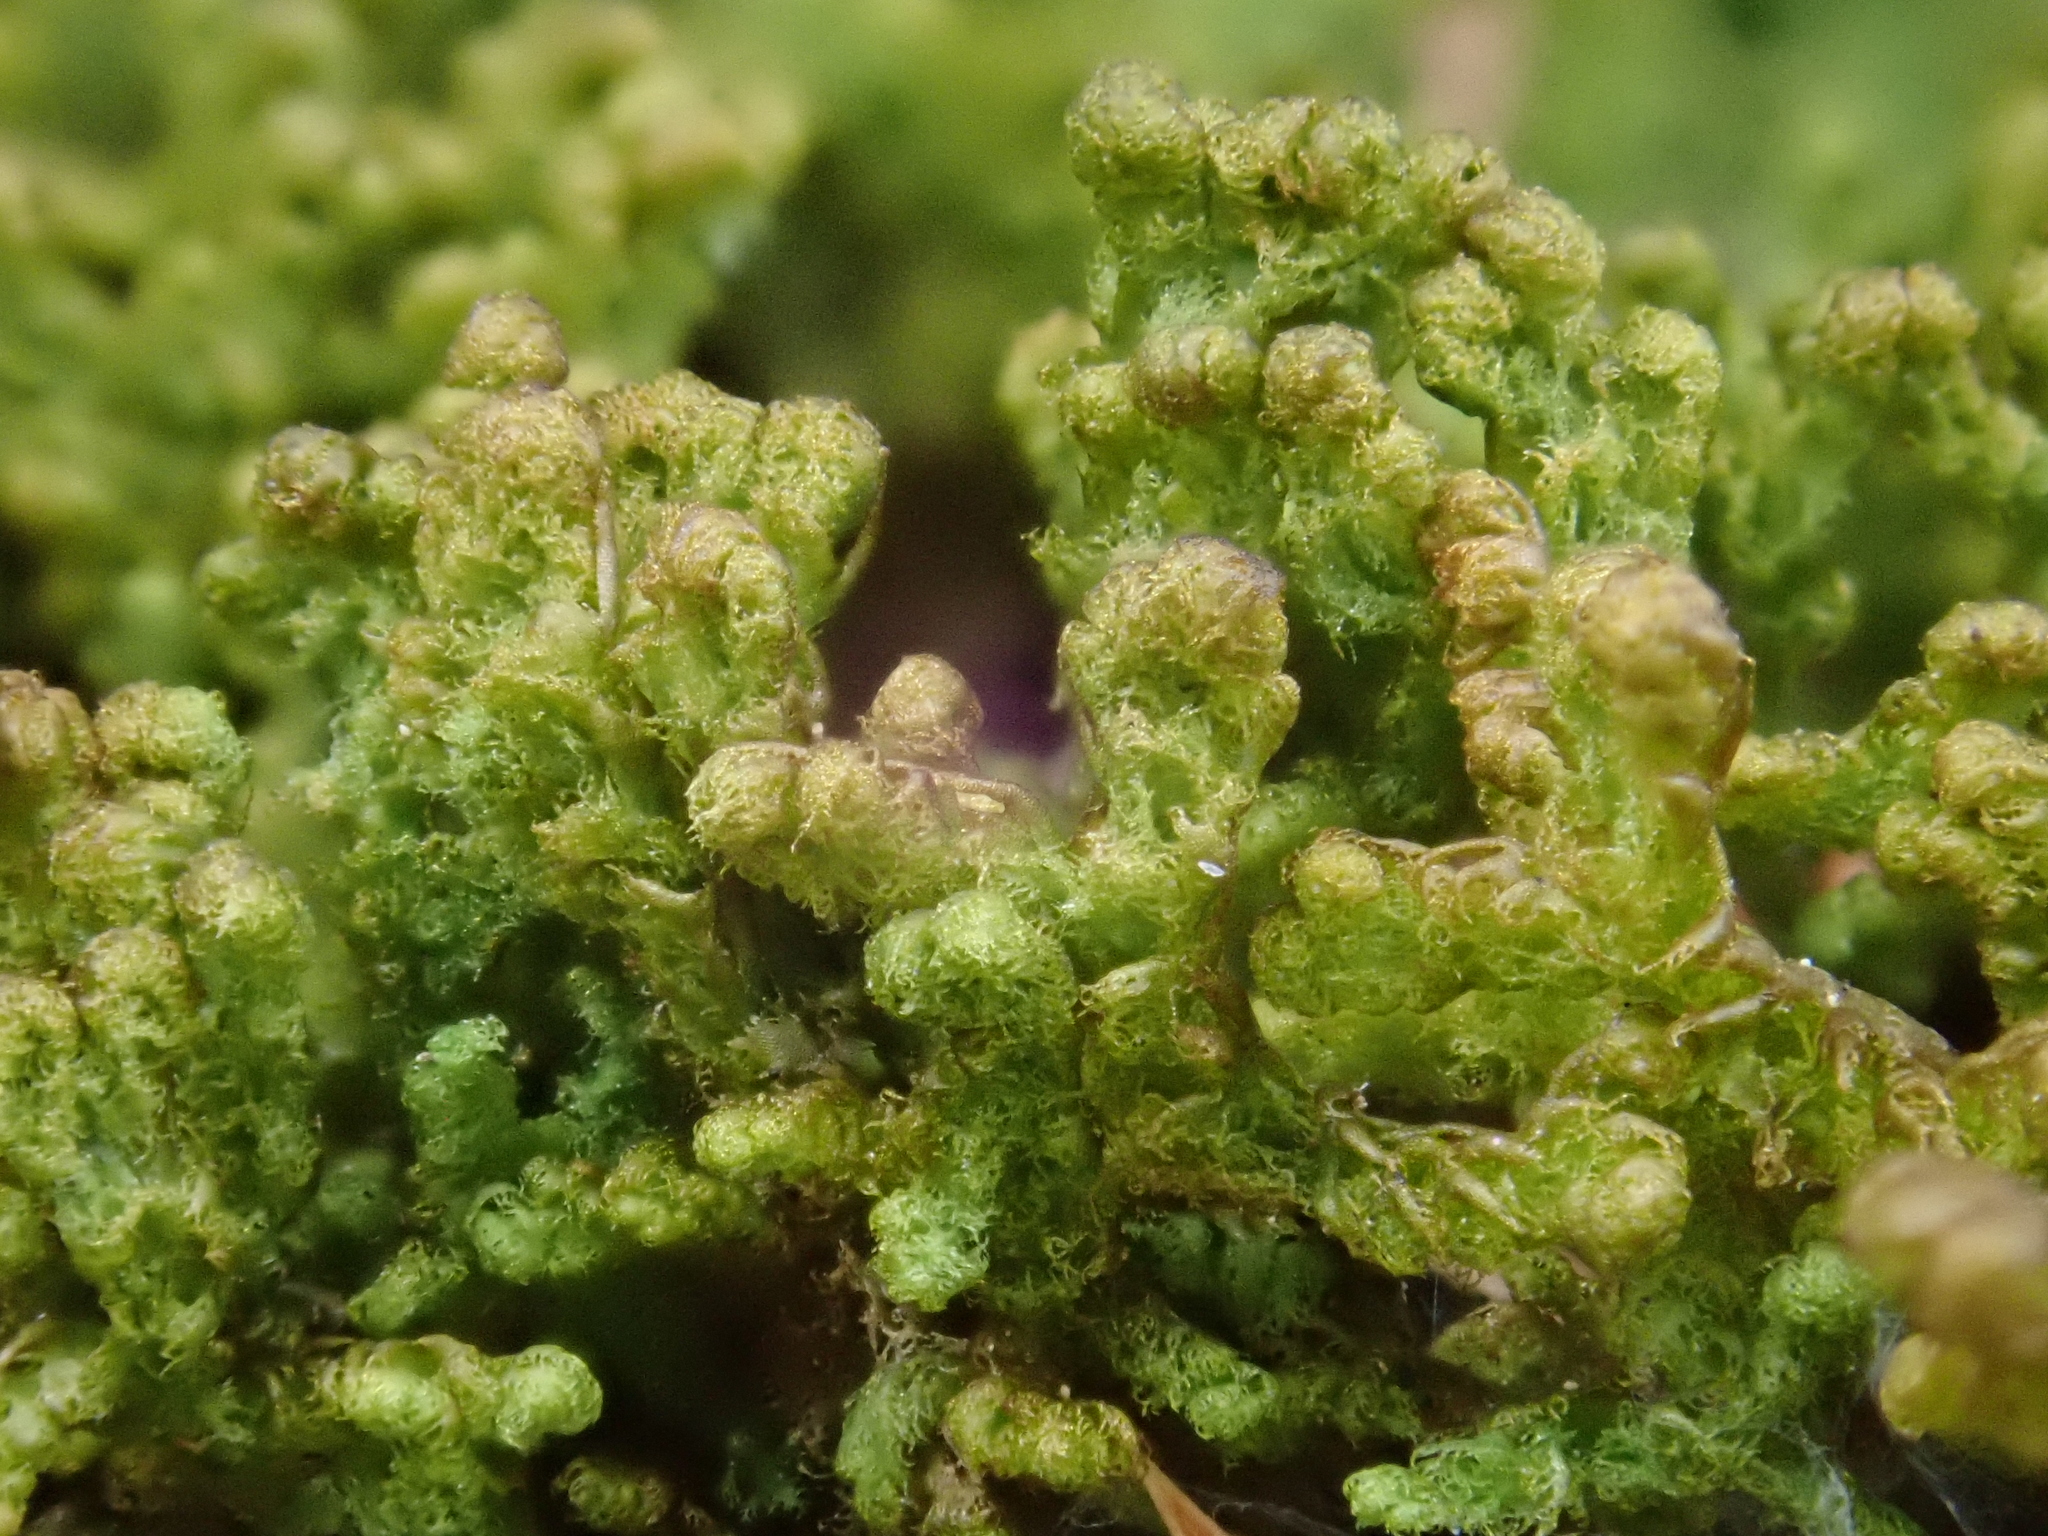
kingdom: Plantae
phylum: Marchantiophyta
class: Jungermanniopsida
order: Ptilidiales
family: Ptilidiaceae
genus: Ptilidium
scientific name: Ptilidium ciliare
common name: Ciliate fringewort
